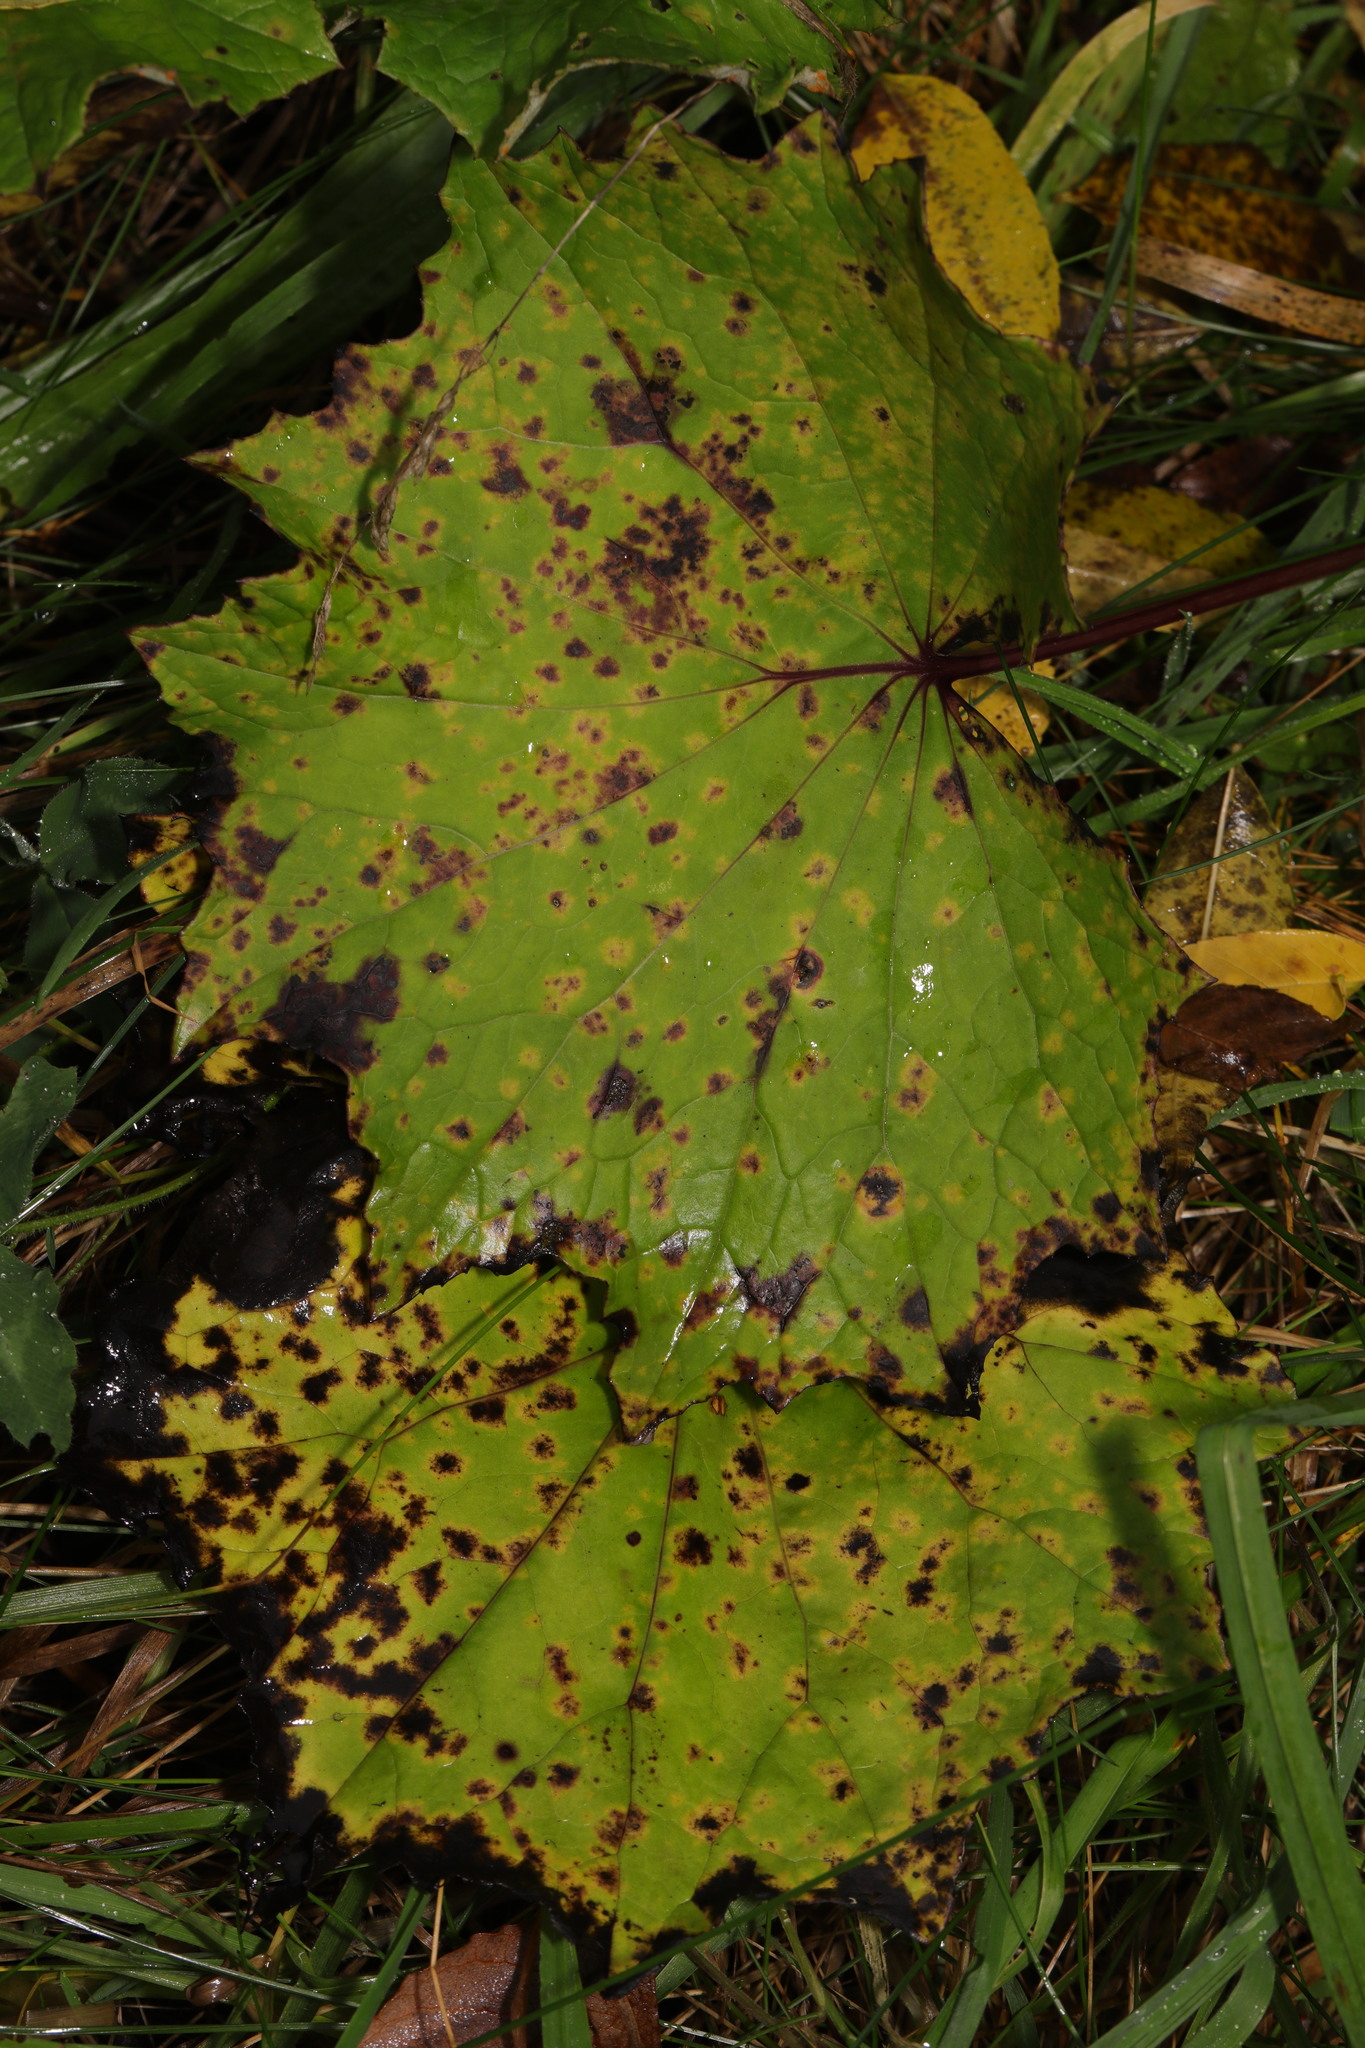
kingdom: Plantae
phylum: Tracheophyta
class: Magnoliopsida
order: Asterales
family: Asteraceae
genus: Tussilago
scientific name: Tussilago farfara
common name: Coltsfoot
